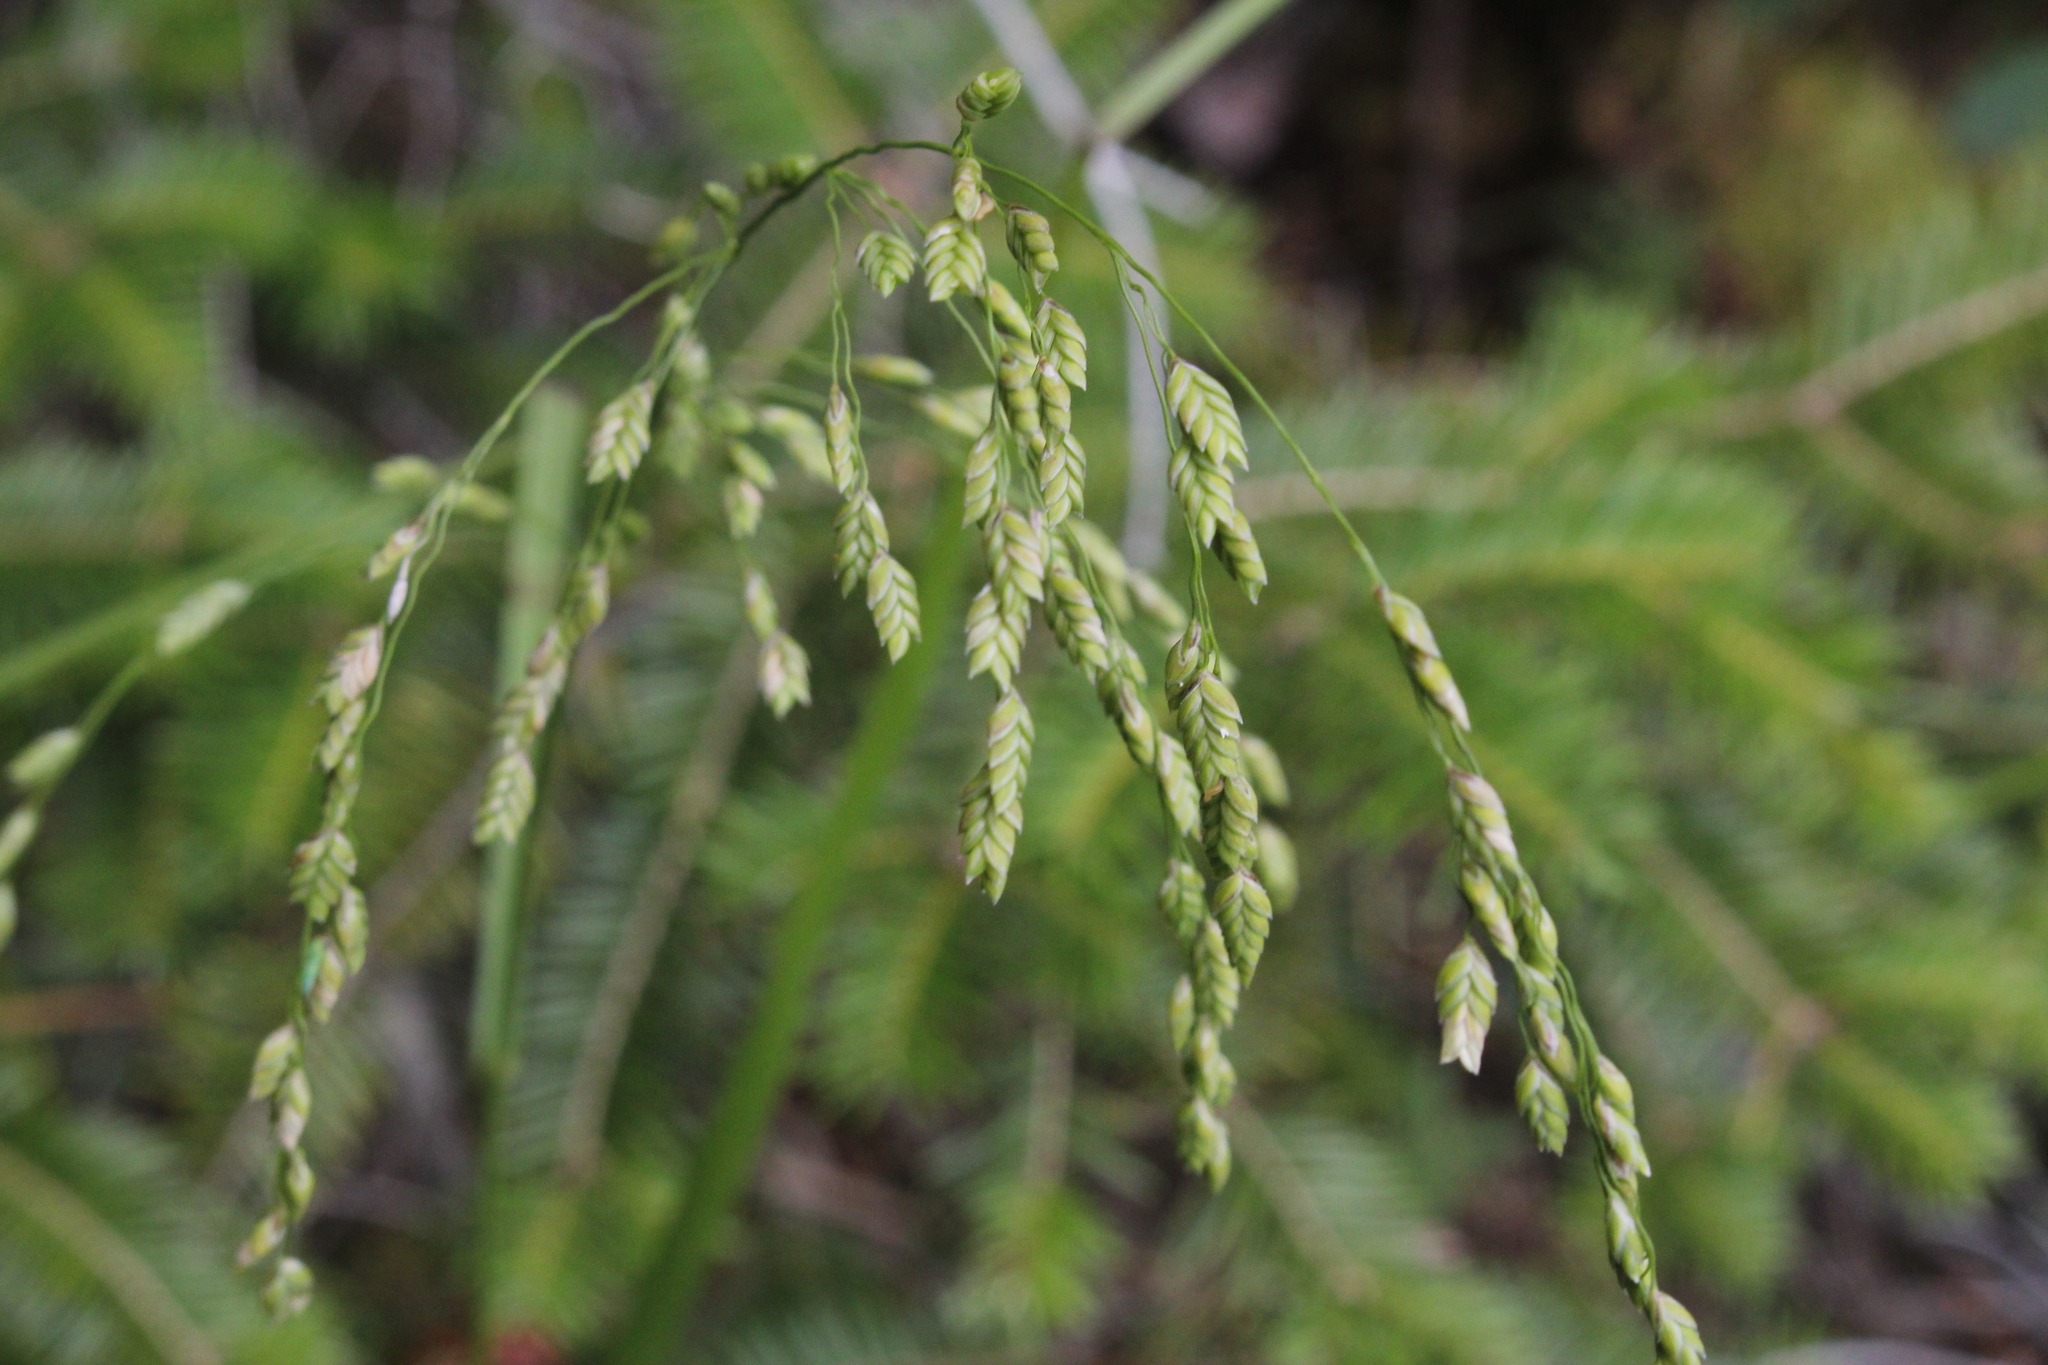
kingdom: Plantae
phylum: Tracheophyta
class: Liliopsida
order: Poales
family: Poaceae
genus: Glyceria
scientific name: Glyceria canadensis
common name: Canada mannagrass
